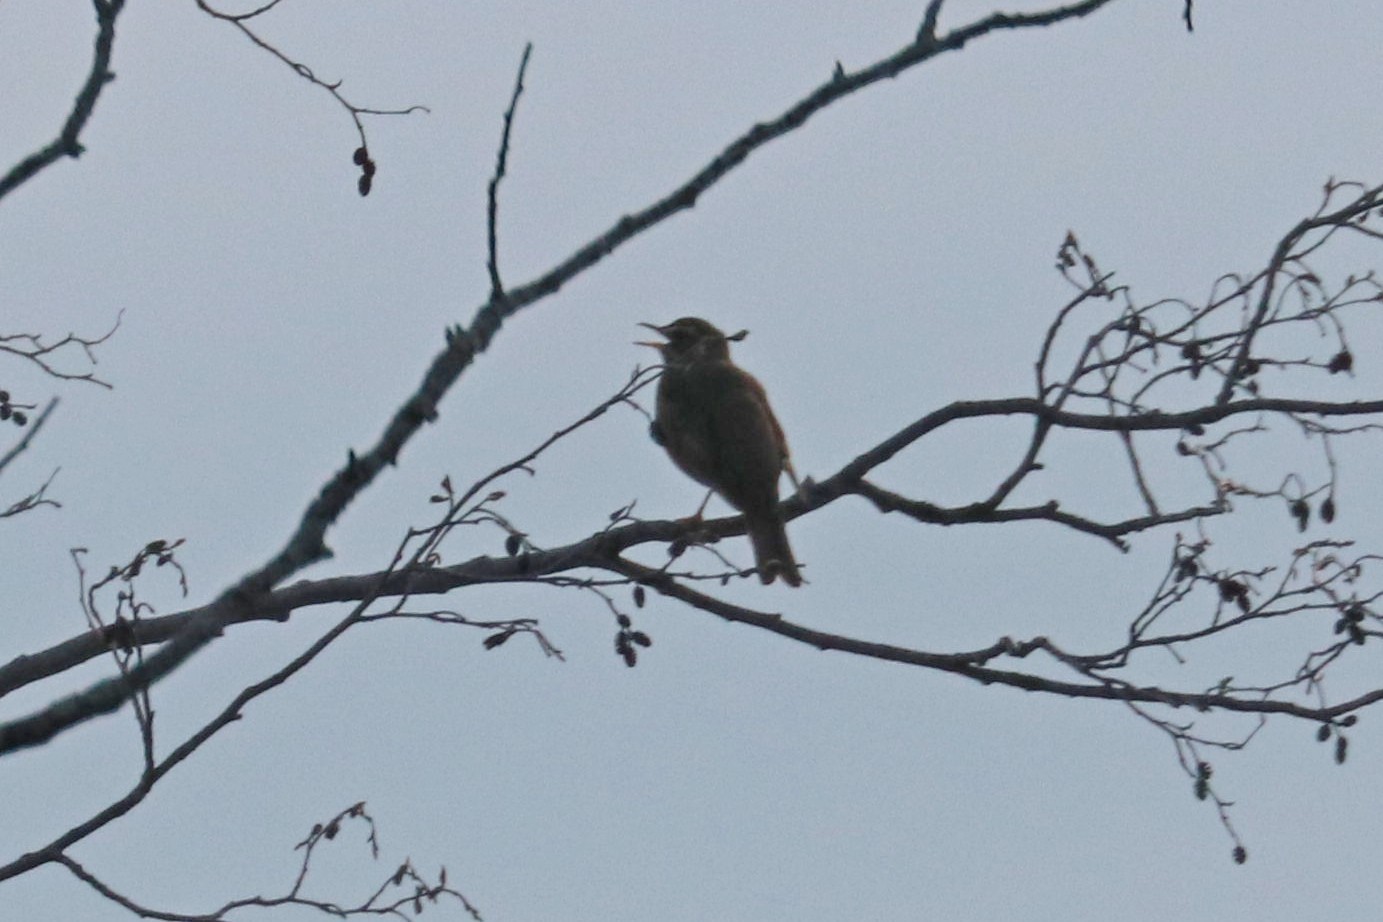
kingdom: Animalia
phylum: Chordata
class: Aves
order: Passeriformes
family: Turdidae
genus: Turdus
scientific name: Turdus iliacus
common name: Redwing
